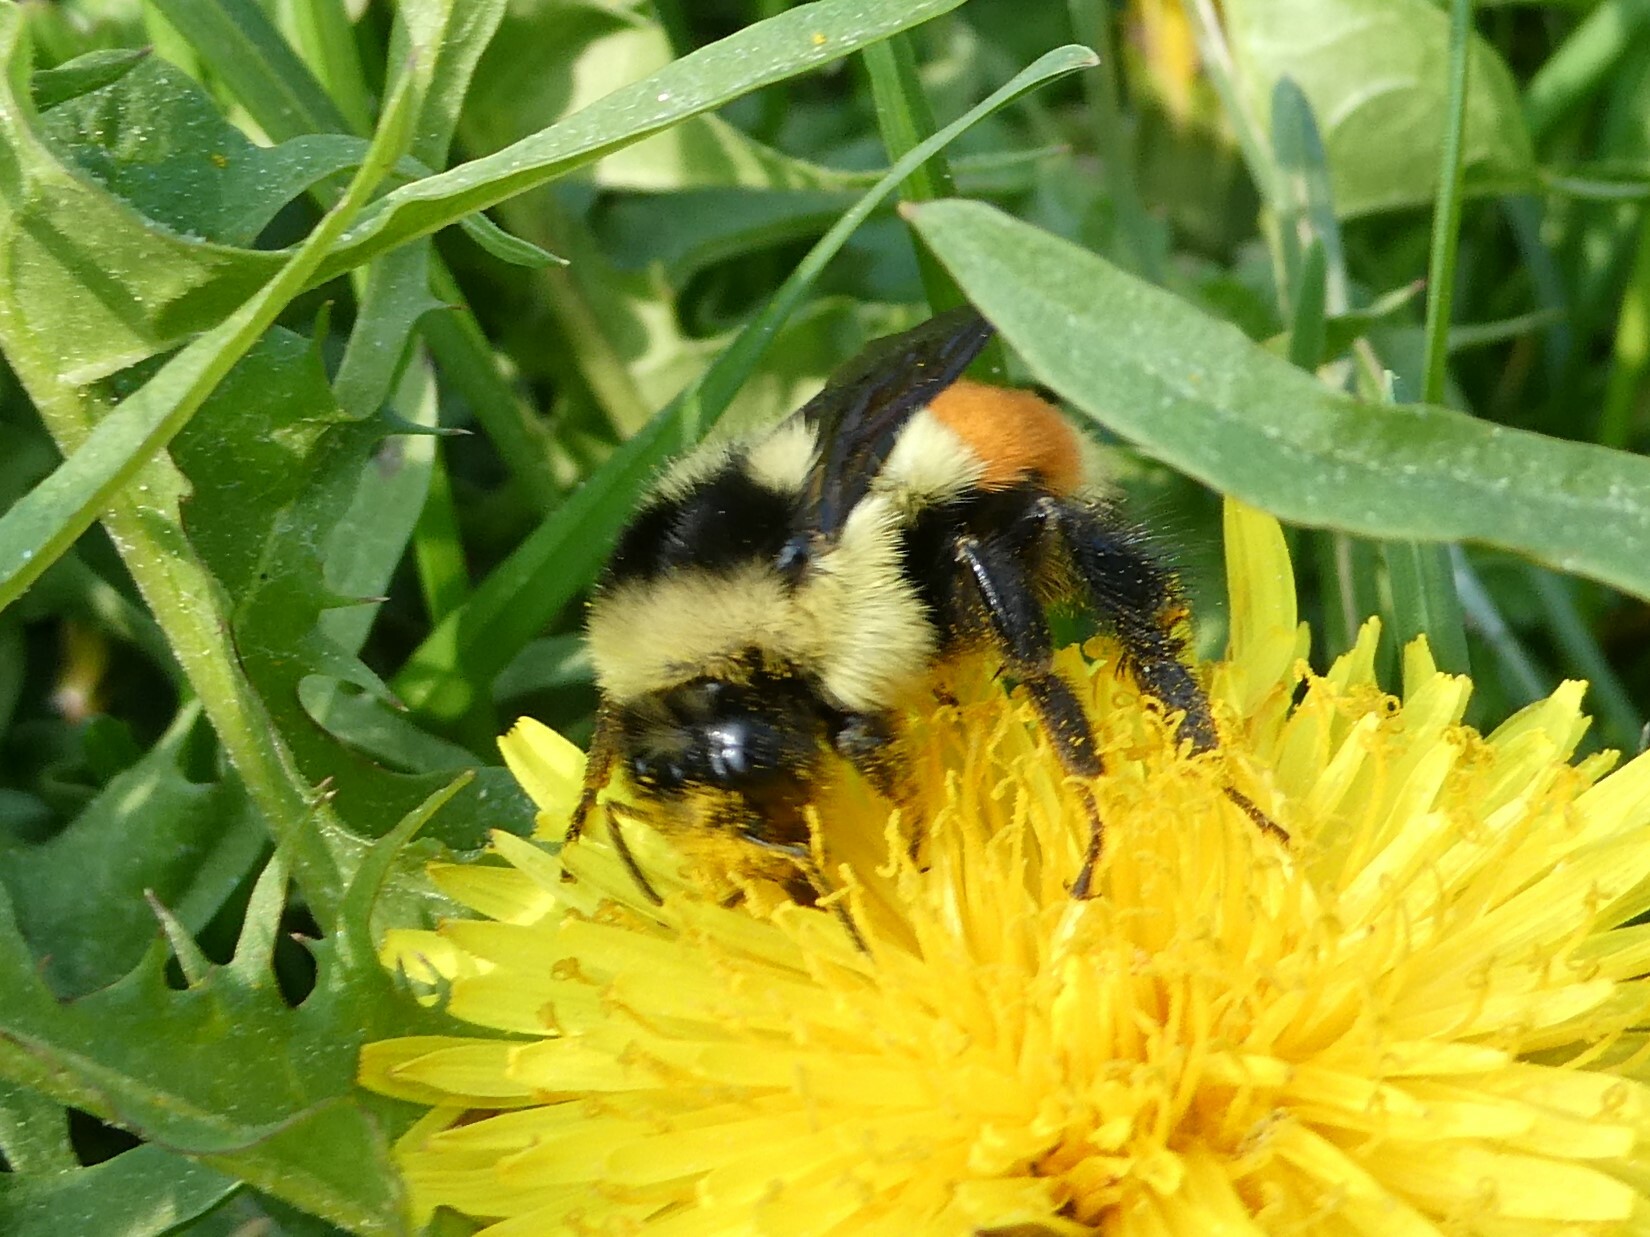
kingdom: Animalia
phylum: Arthropoda
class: Insecta
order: Hymenoptera
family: Apidae
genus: Bombus
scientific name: Bombus ternarius
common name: Tri-colored bumble bee
